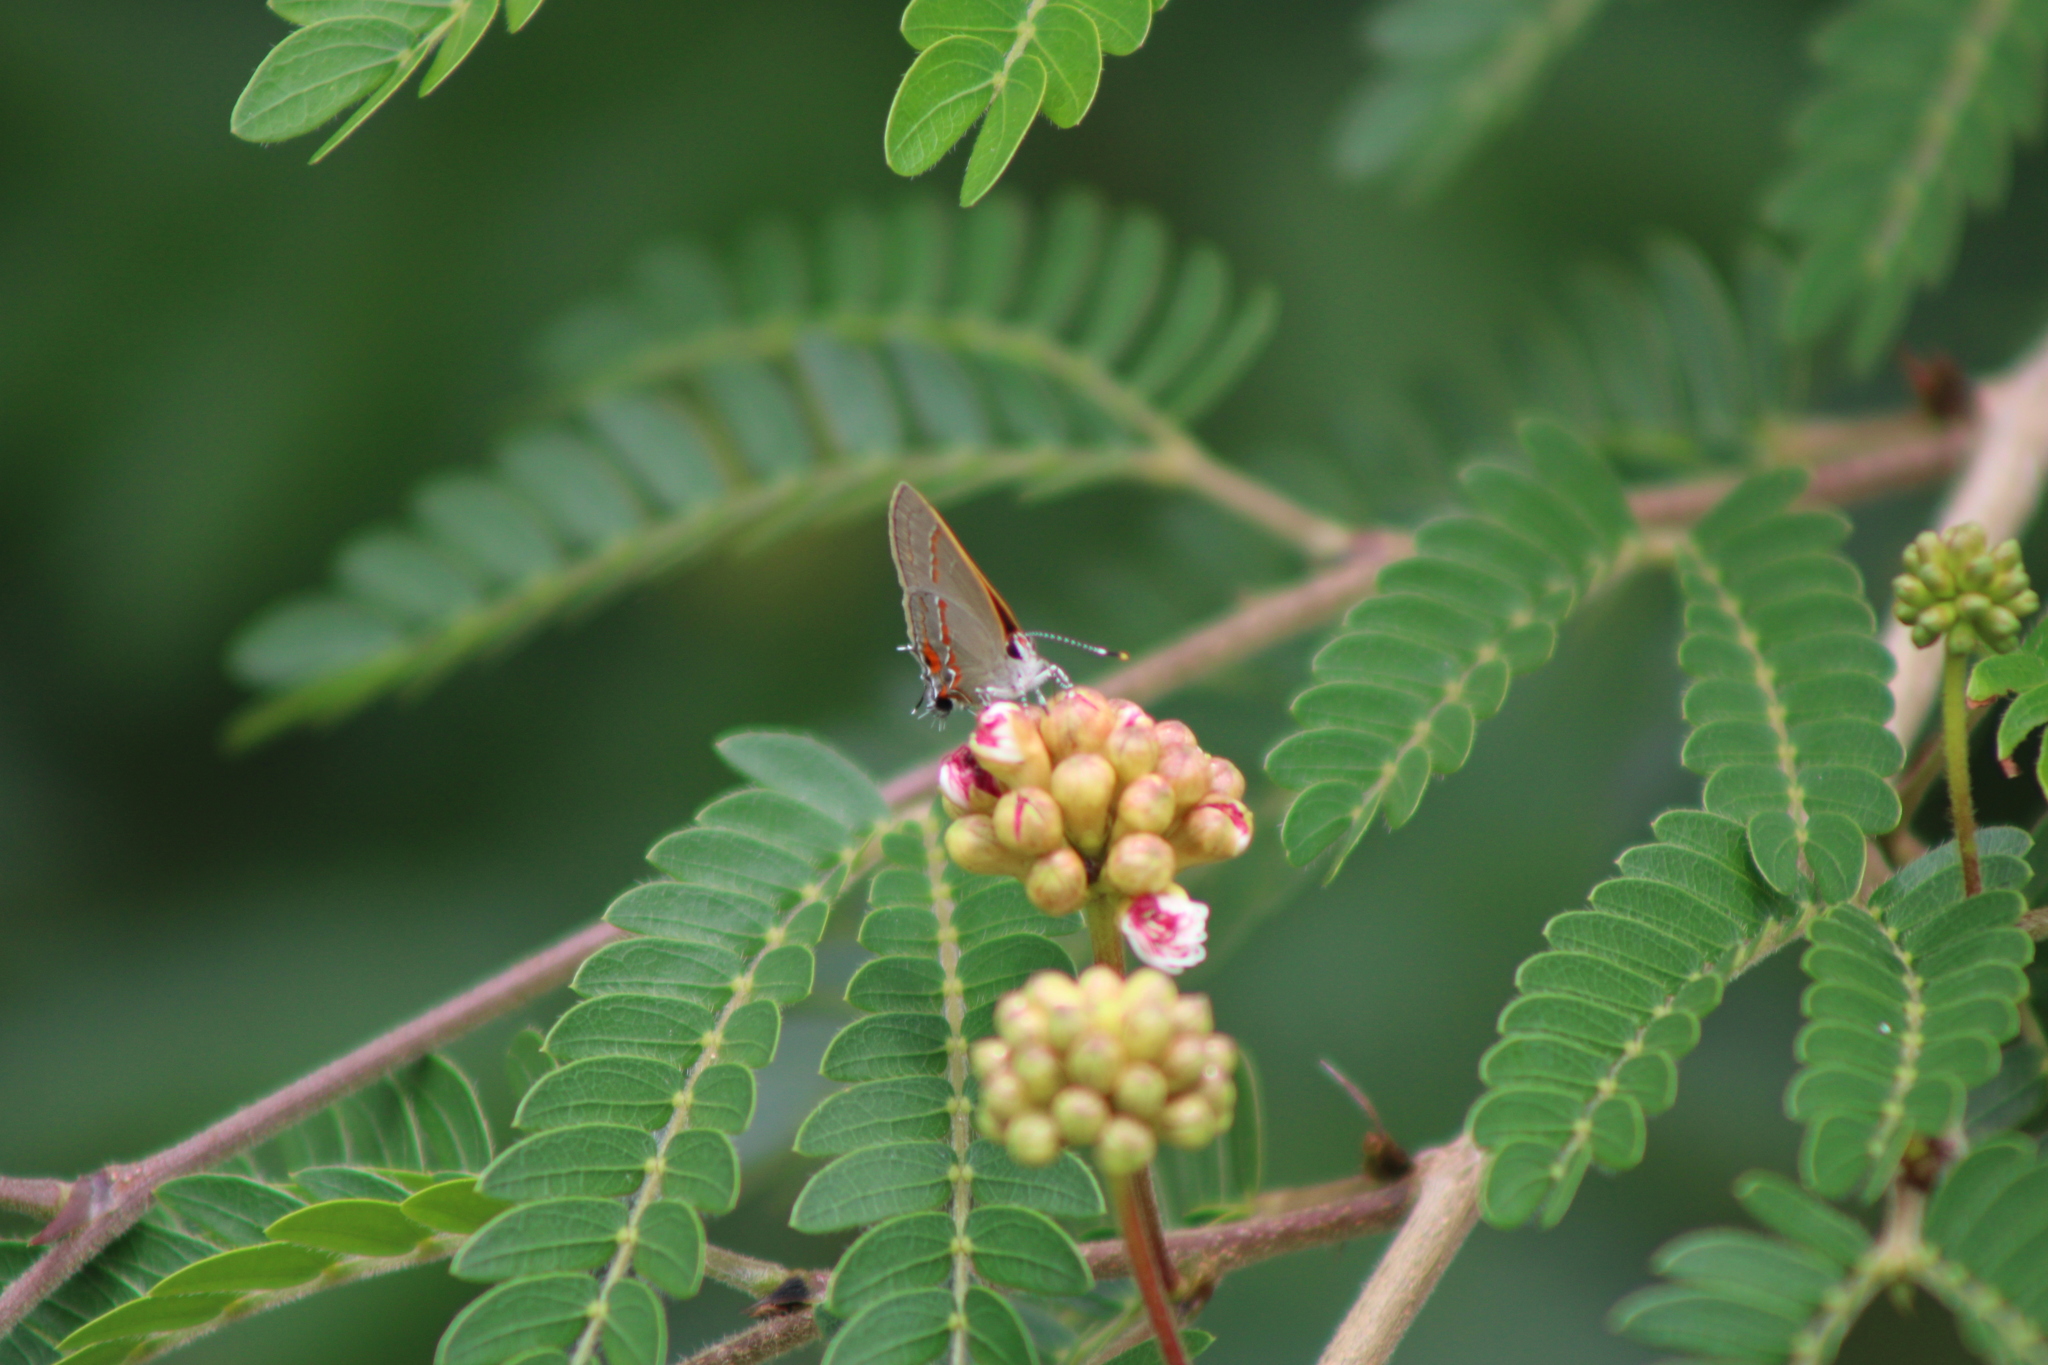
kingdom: Animalia
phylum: Arthropoda
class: Insecta
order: Lepidoptera
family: Lycaenidae
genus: Electrostrymon
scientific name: Electrostrymon endymion
